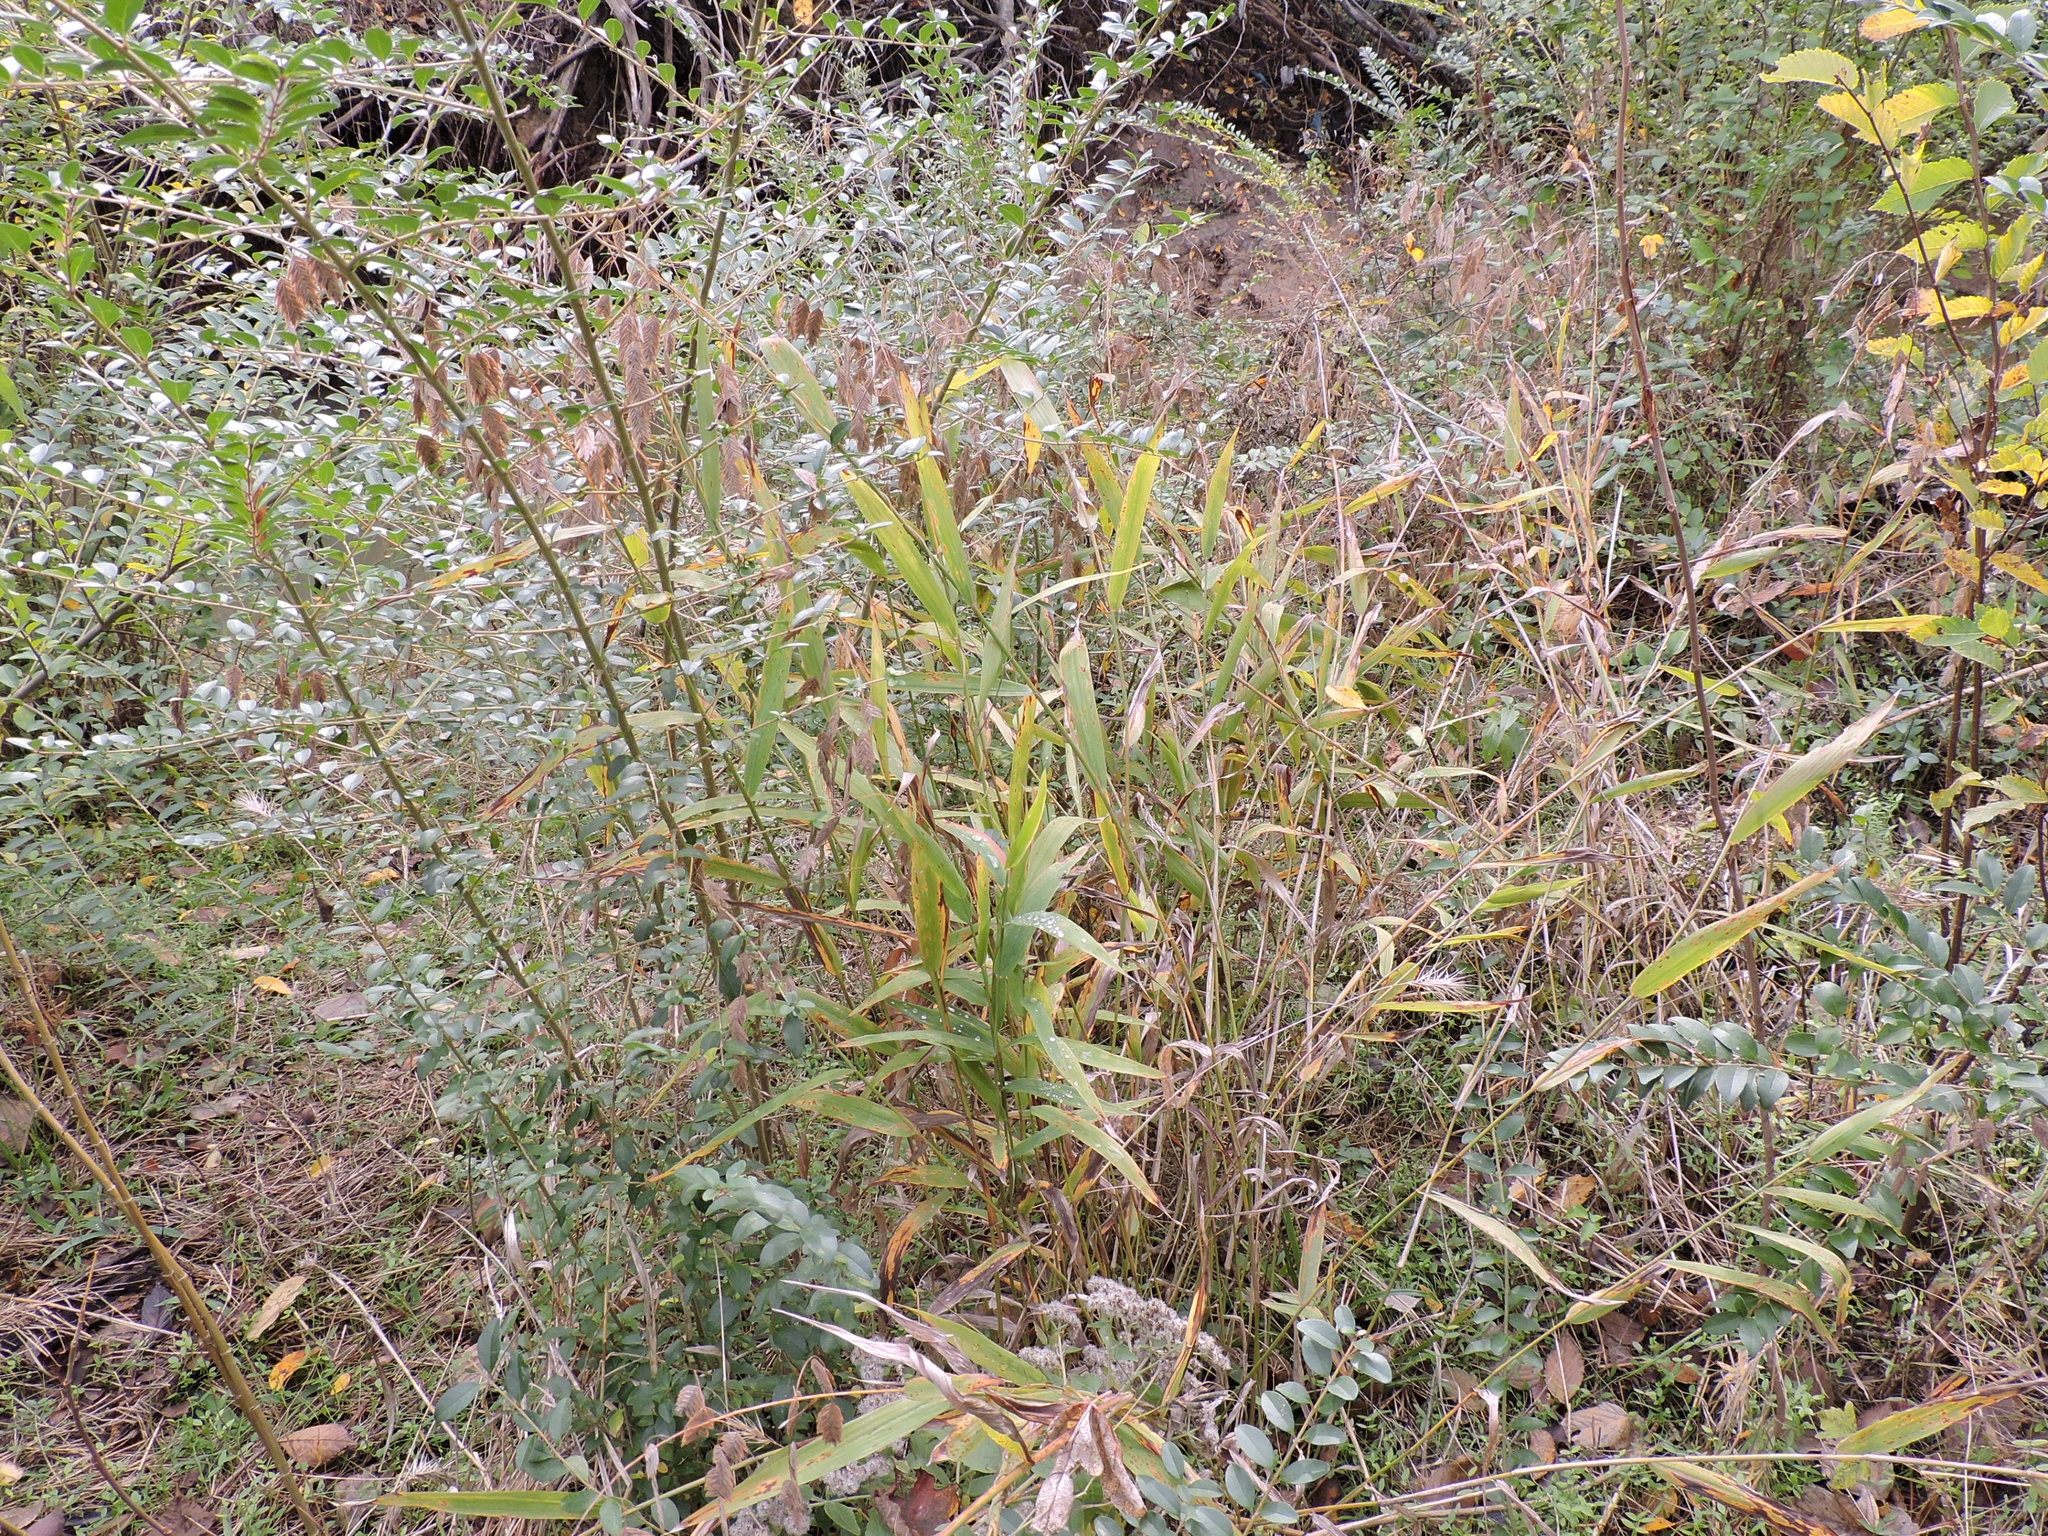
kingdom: Plantae
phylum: Tracheophyta
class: Liliopsida
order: Poales
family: Poaceae
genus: Chasmanthium
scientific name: Chasmanthium latifolium
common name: Broad-leaved chasmanthium
